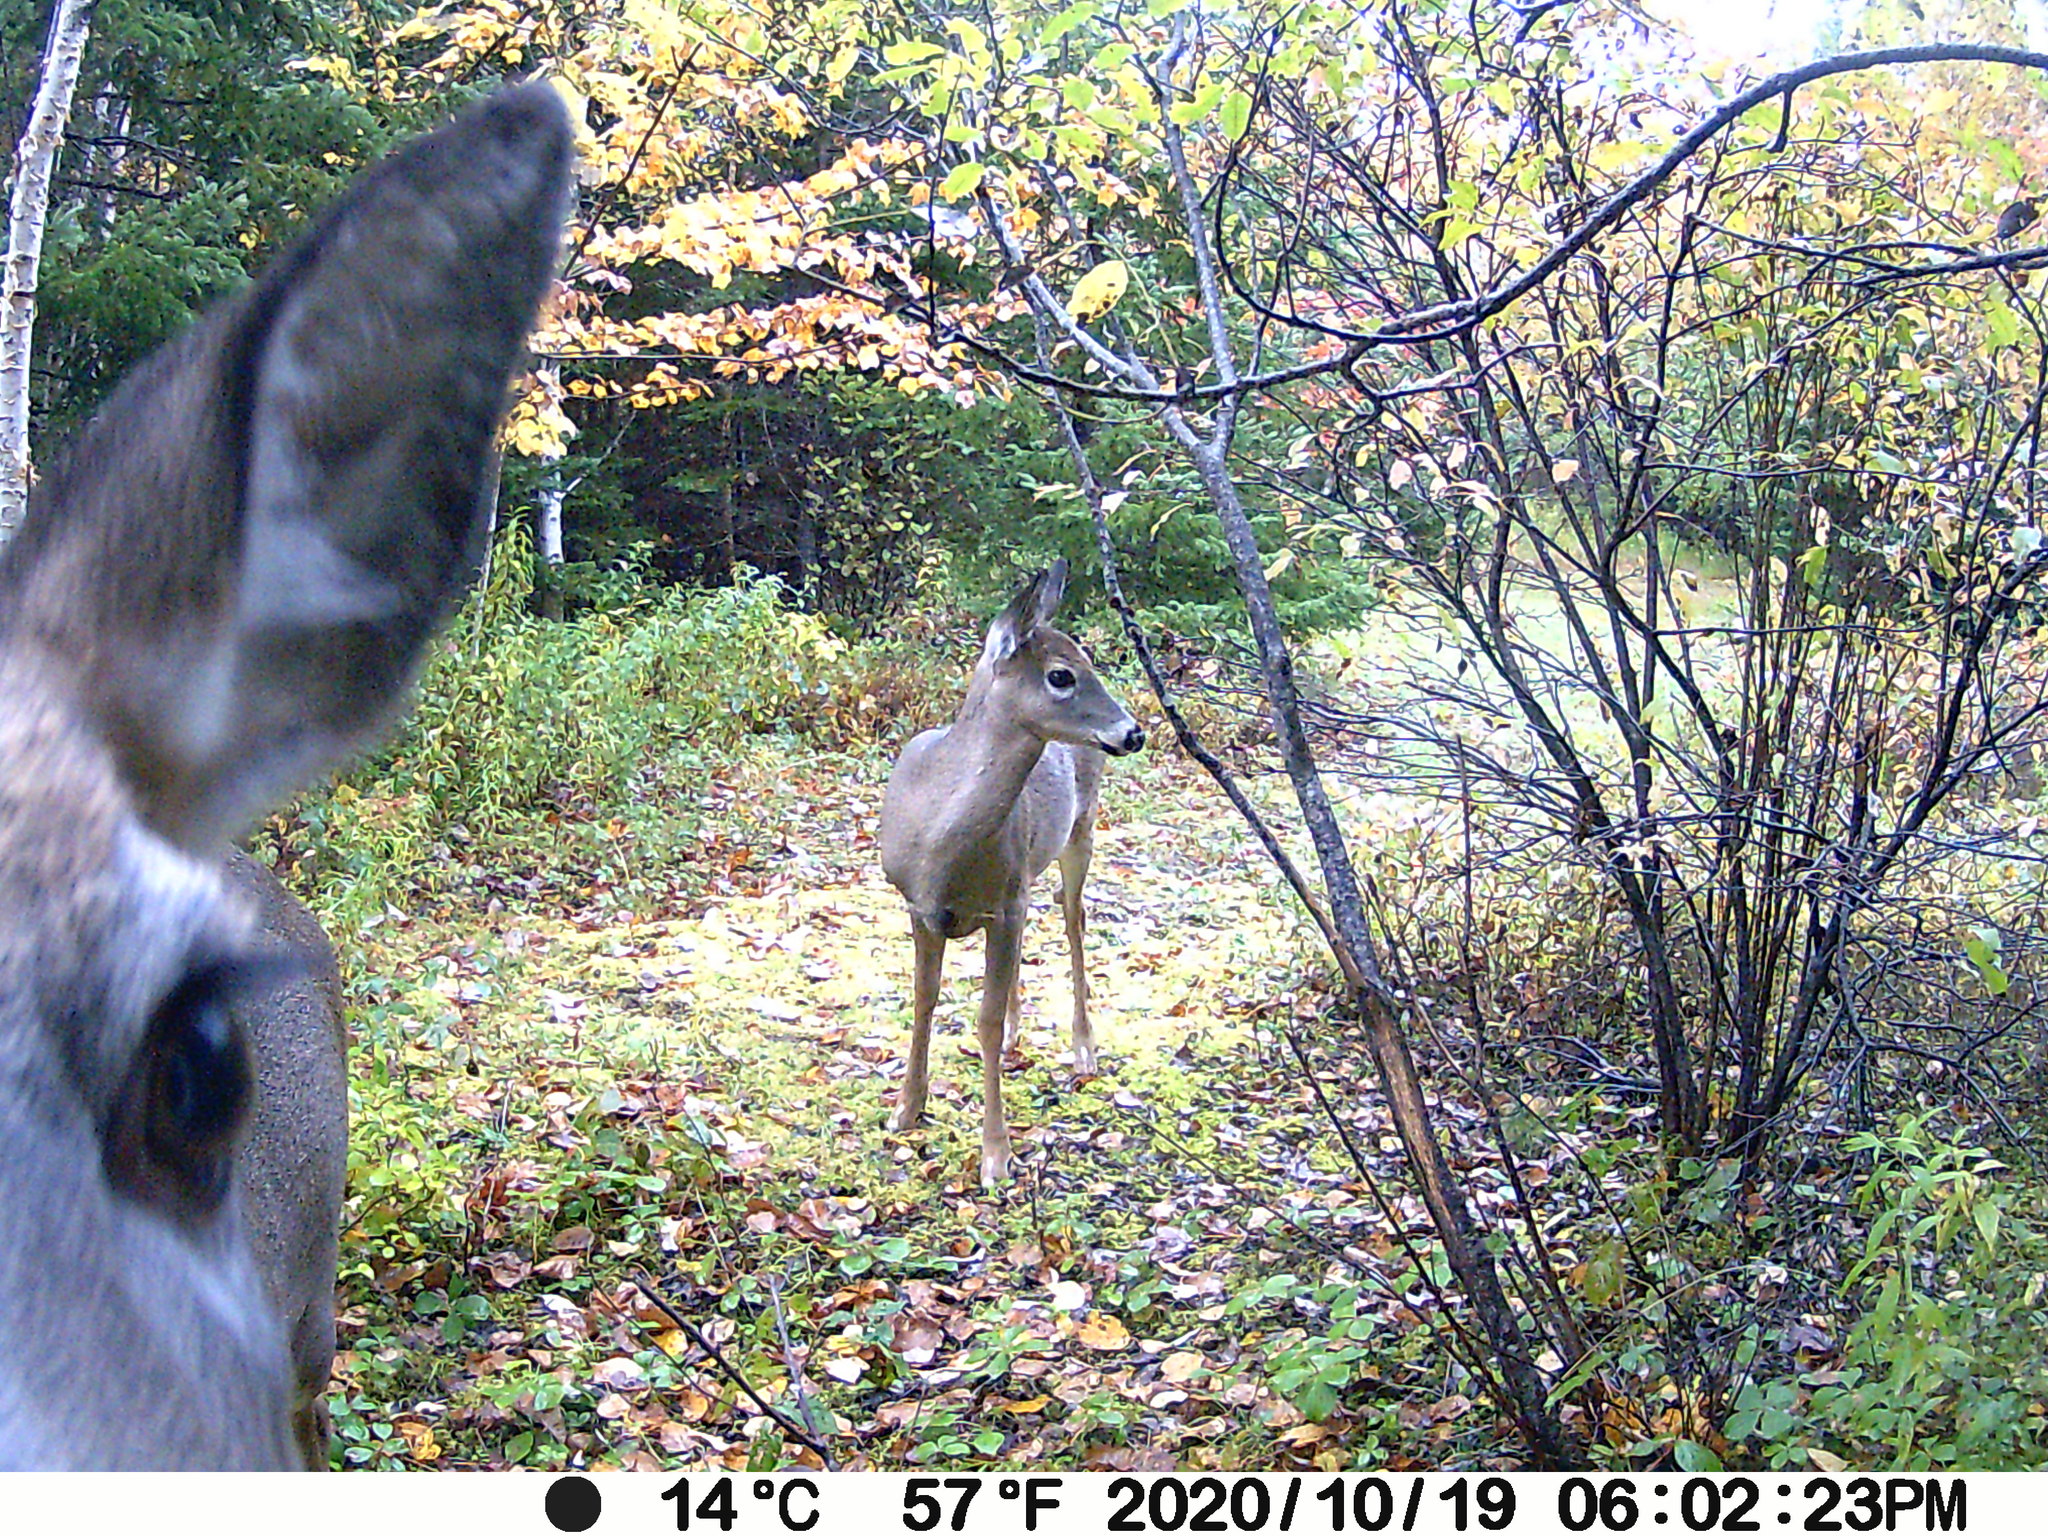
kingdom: Animalia
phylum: Chordata
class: Mammalia
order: Artiodactyla
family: Cervidae
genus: Odocoileus
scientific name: Odocoileus virginianus
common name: White-tailed deer
